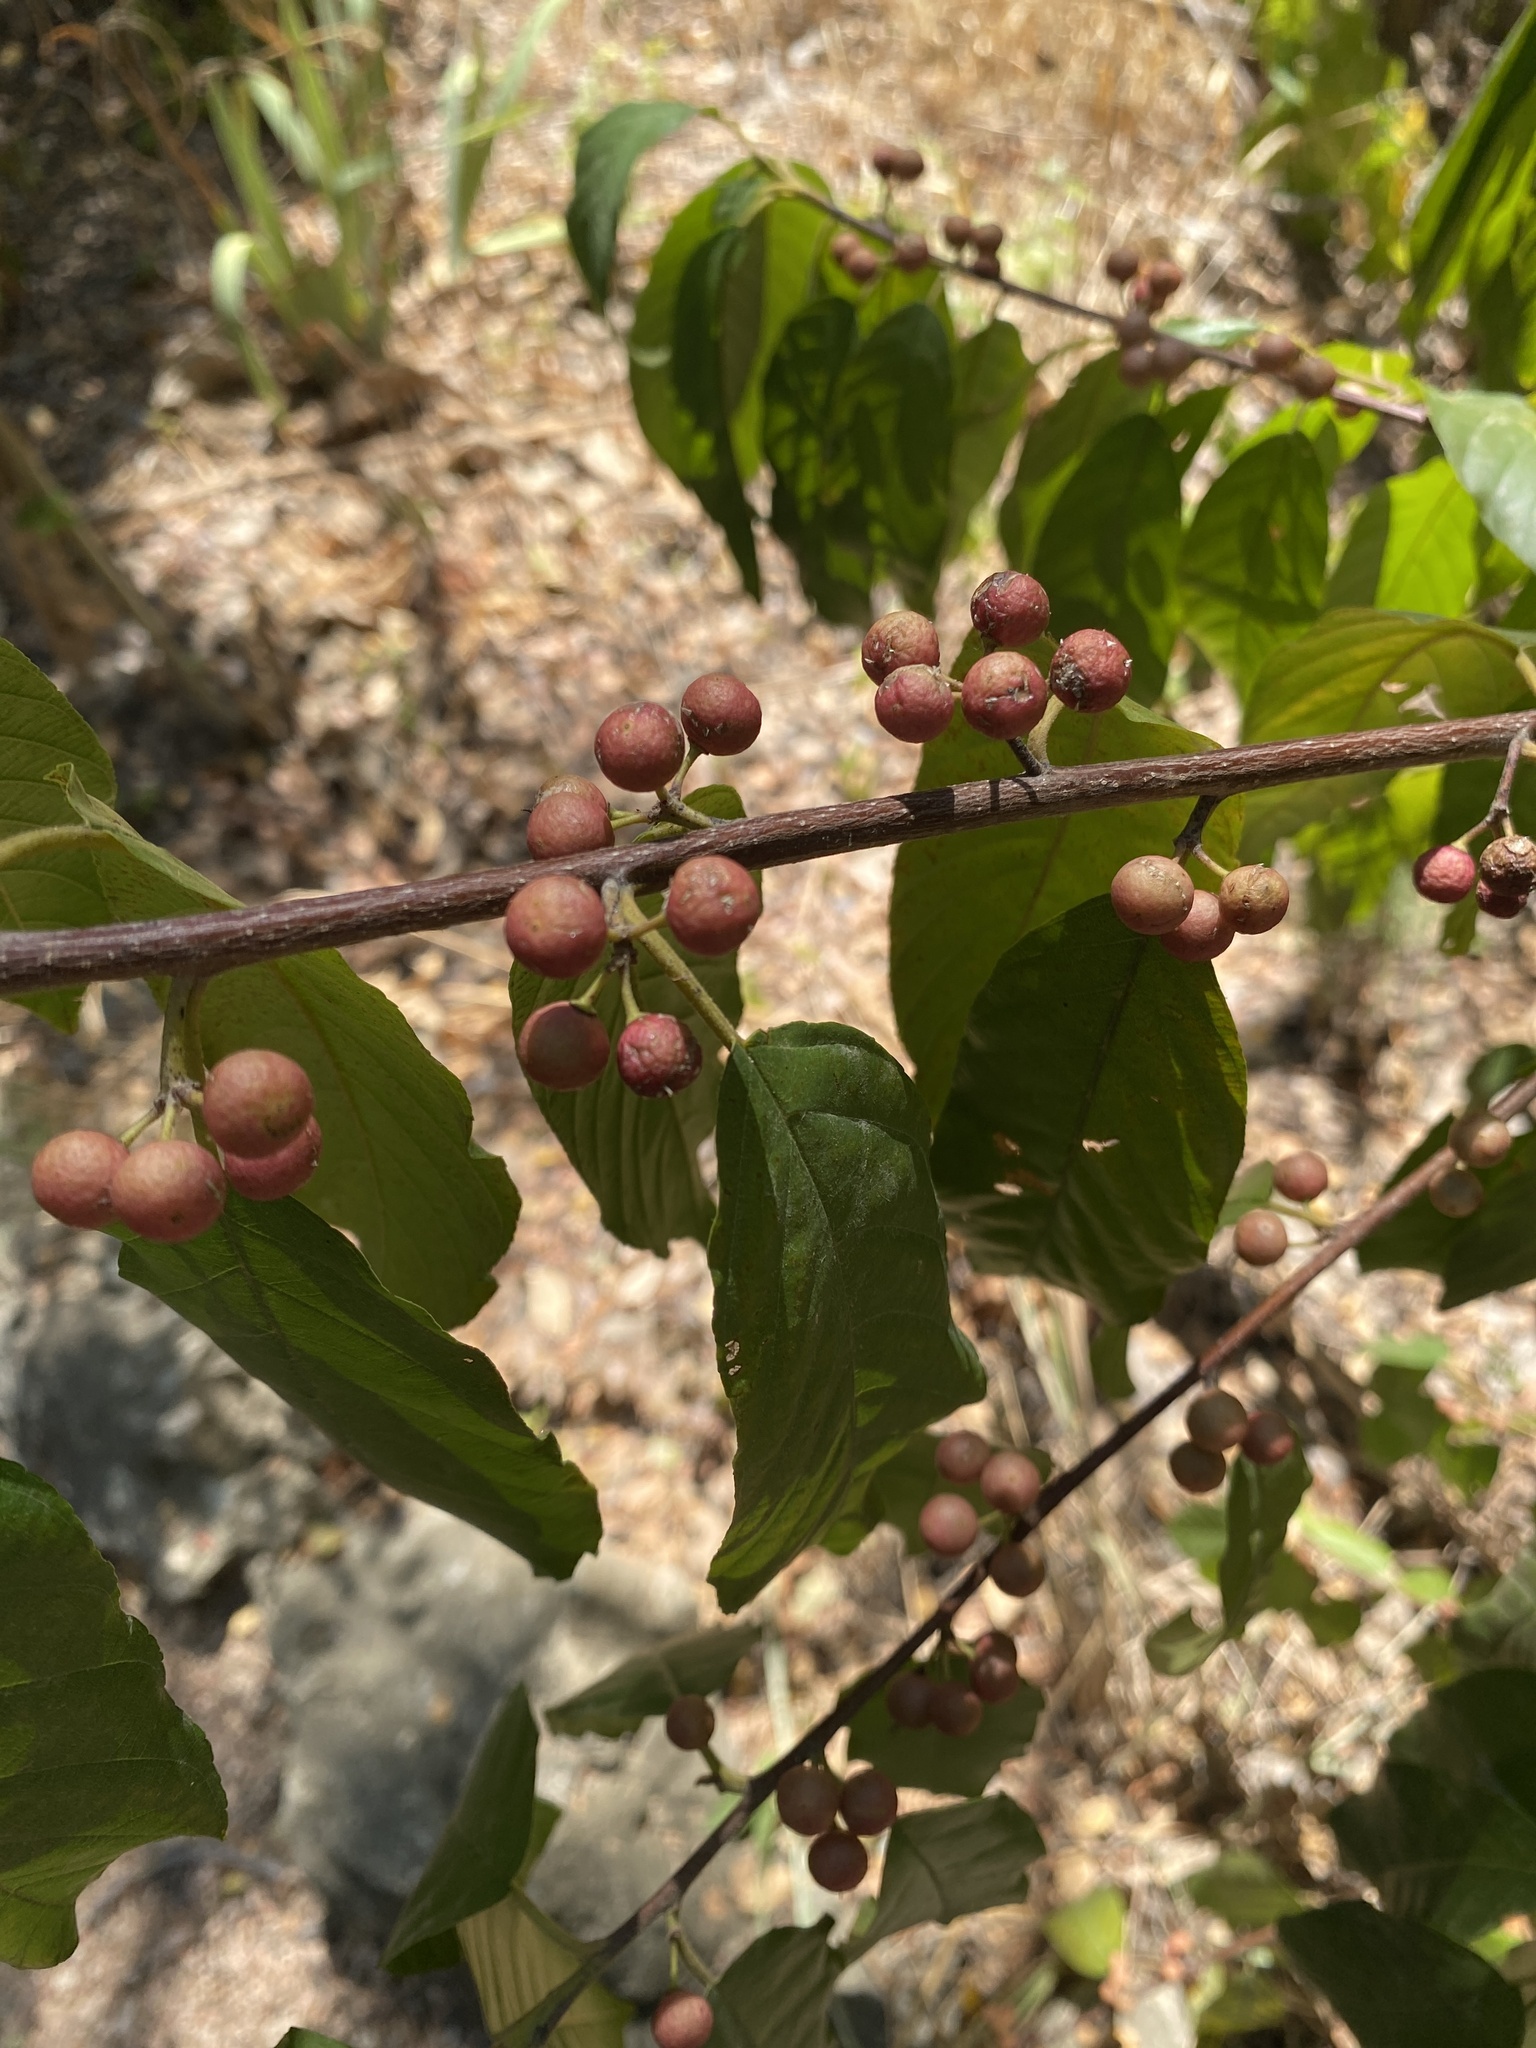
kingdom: Plantae
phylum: Tracheophyta
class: Magnoliopsida
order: Rosales
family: Rhamnaceae
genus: Frangula
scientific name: Frangula caroliniana
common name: Carolina buckthorn
